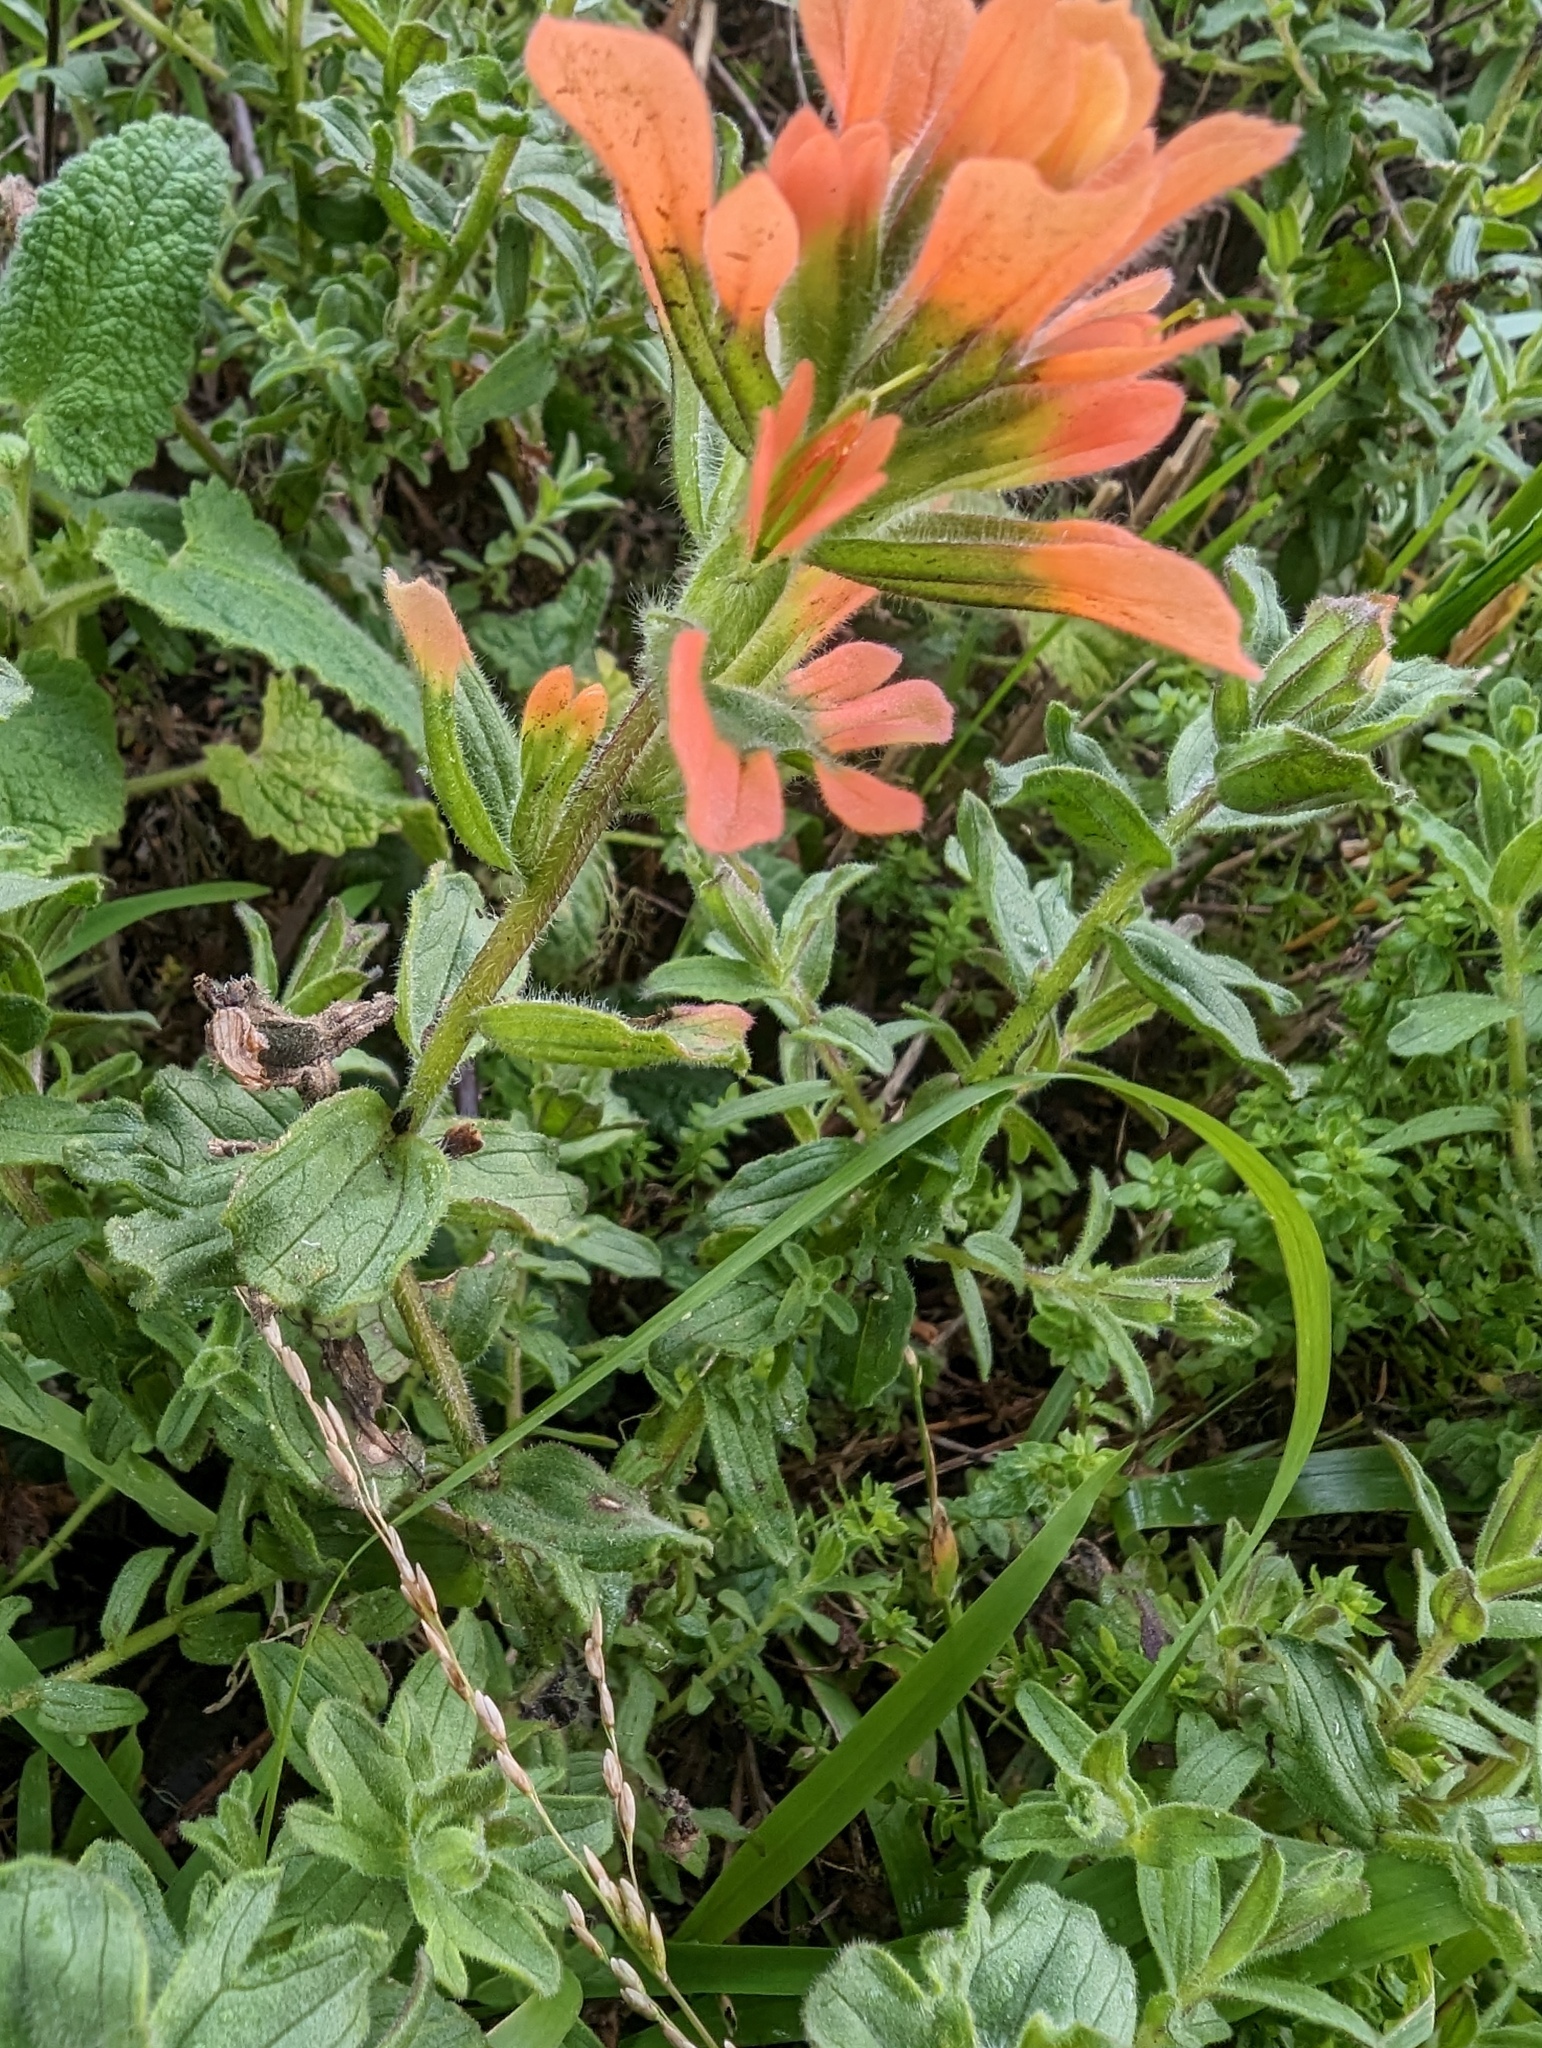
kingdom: Plantae
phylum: Tracheophyta
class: Magnoliopsida
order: Lamiales
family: Orobanchaceae
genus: Castilleja
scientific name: Castilleja latifolia
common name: Monterey indian paintbrush
